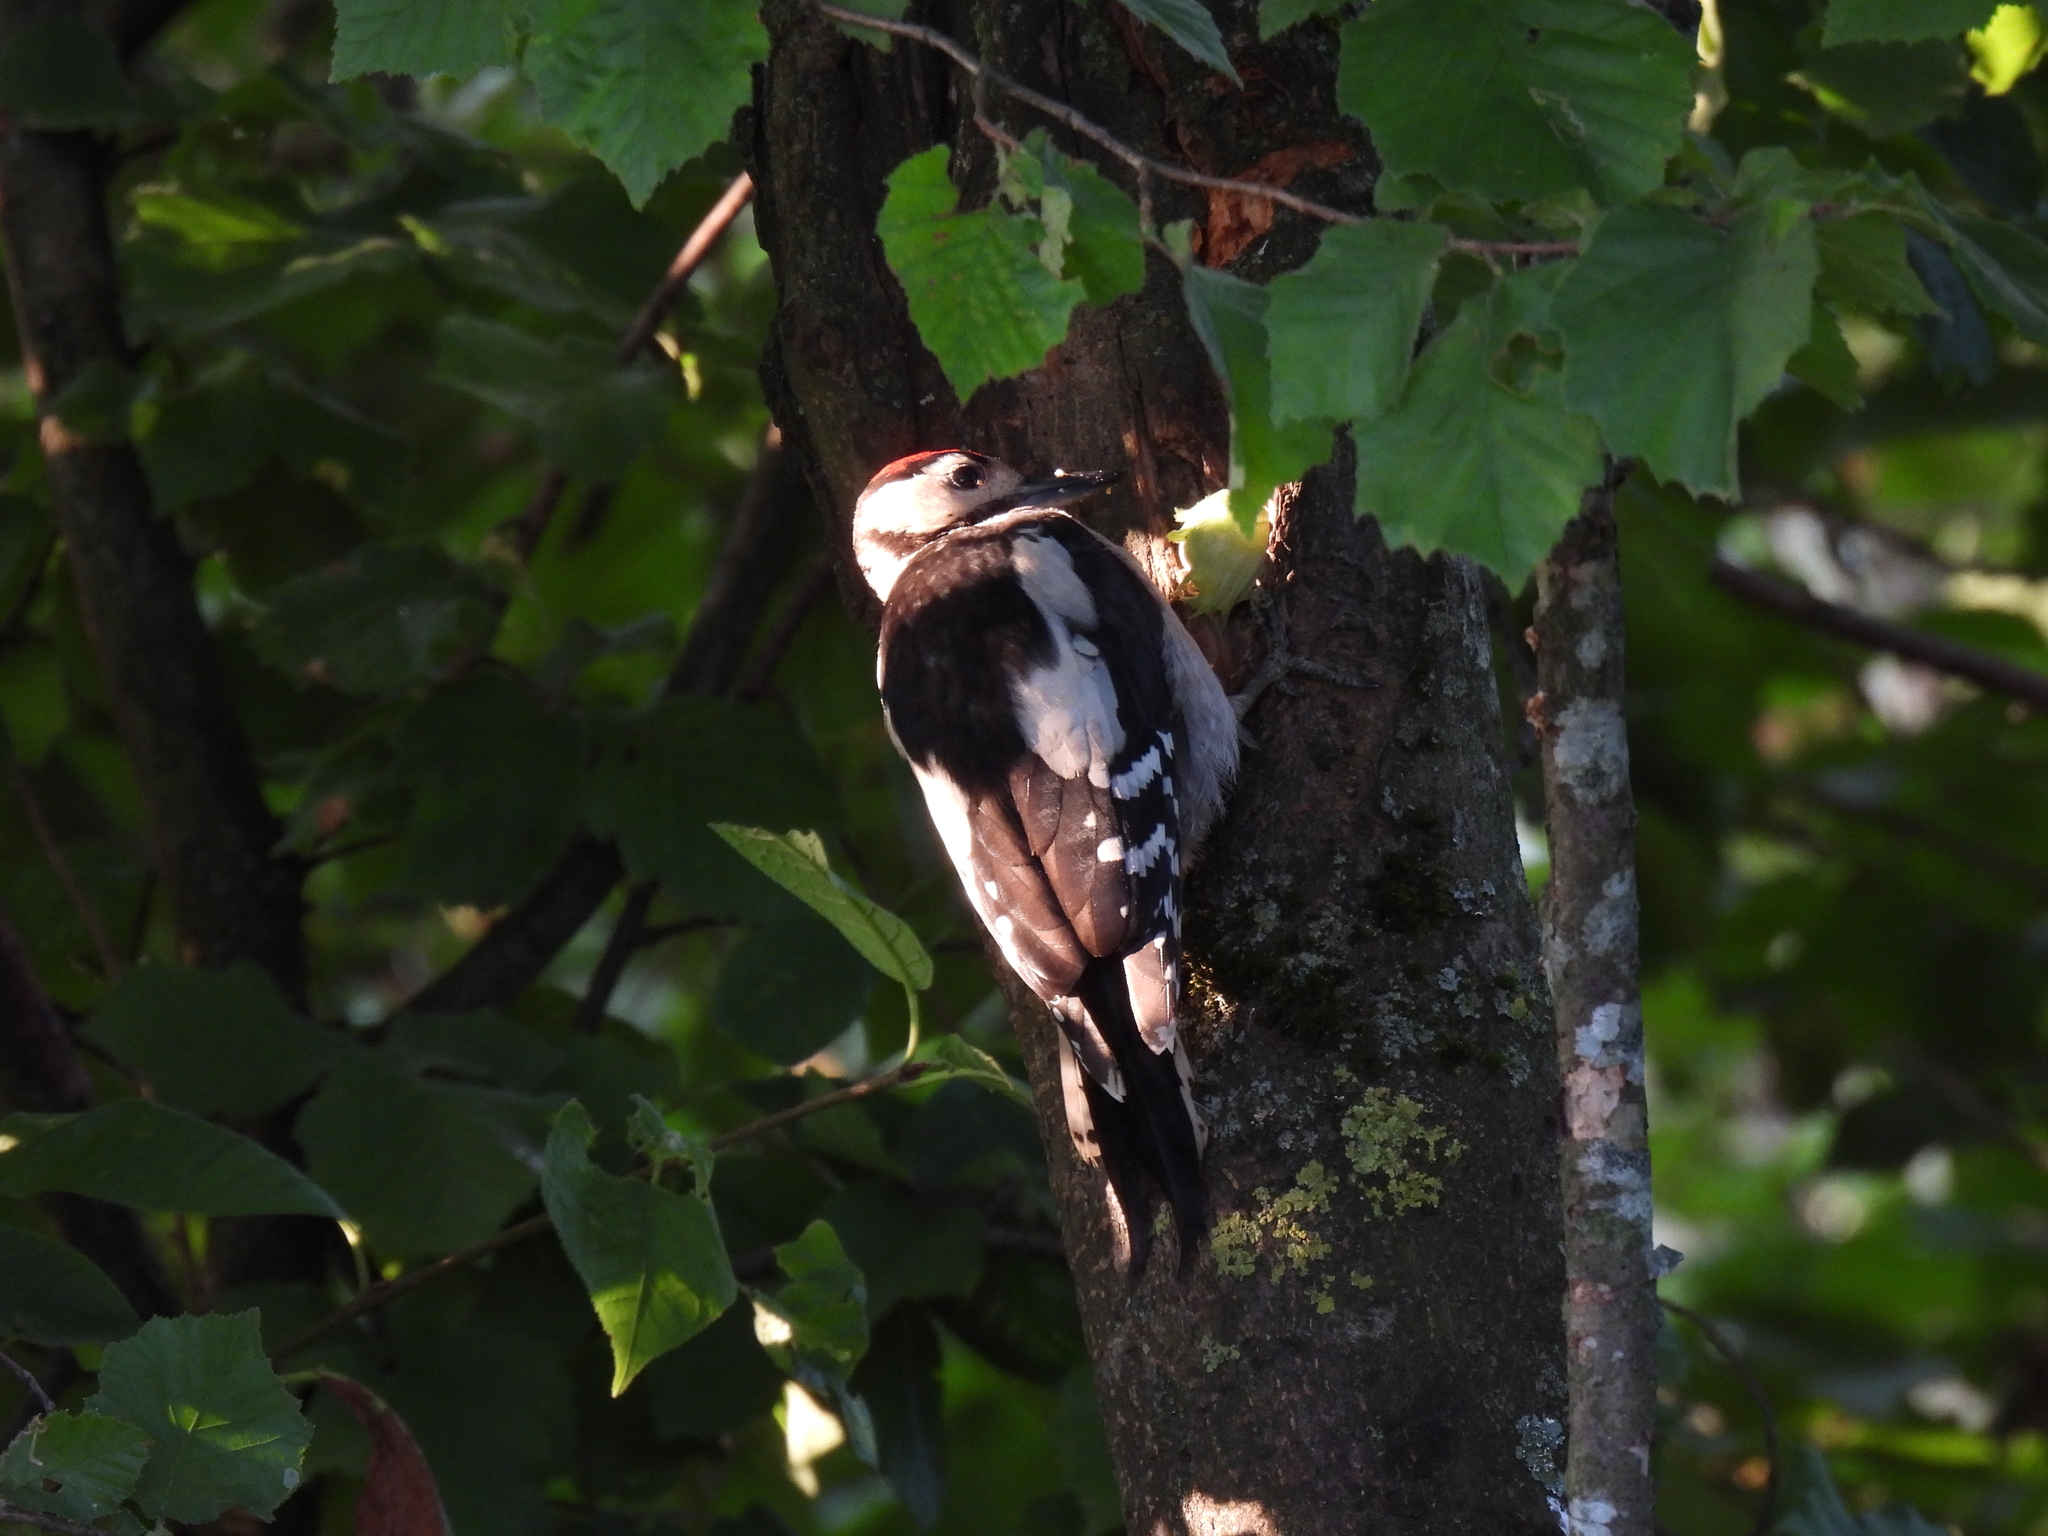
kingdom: Animalia
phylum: Chordata
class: Aves
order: Piciformes
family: Picidae
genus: Dendrocopos
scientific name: Dendrocopos major
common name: Great spotted woodpecker
